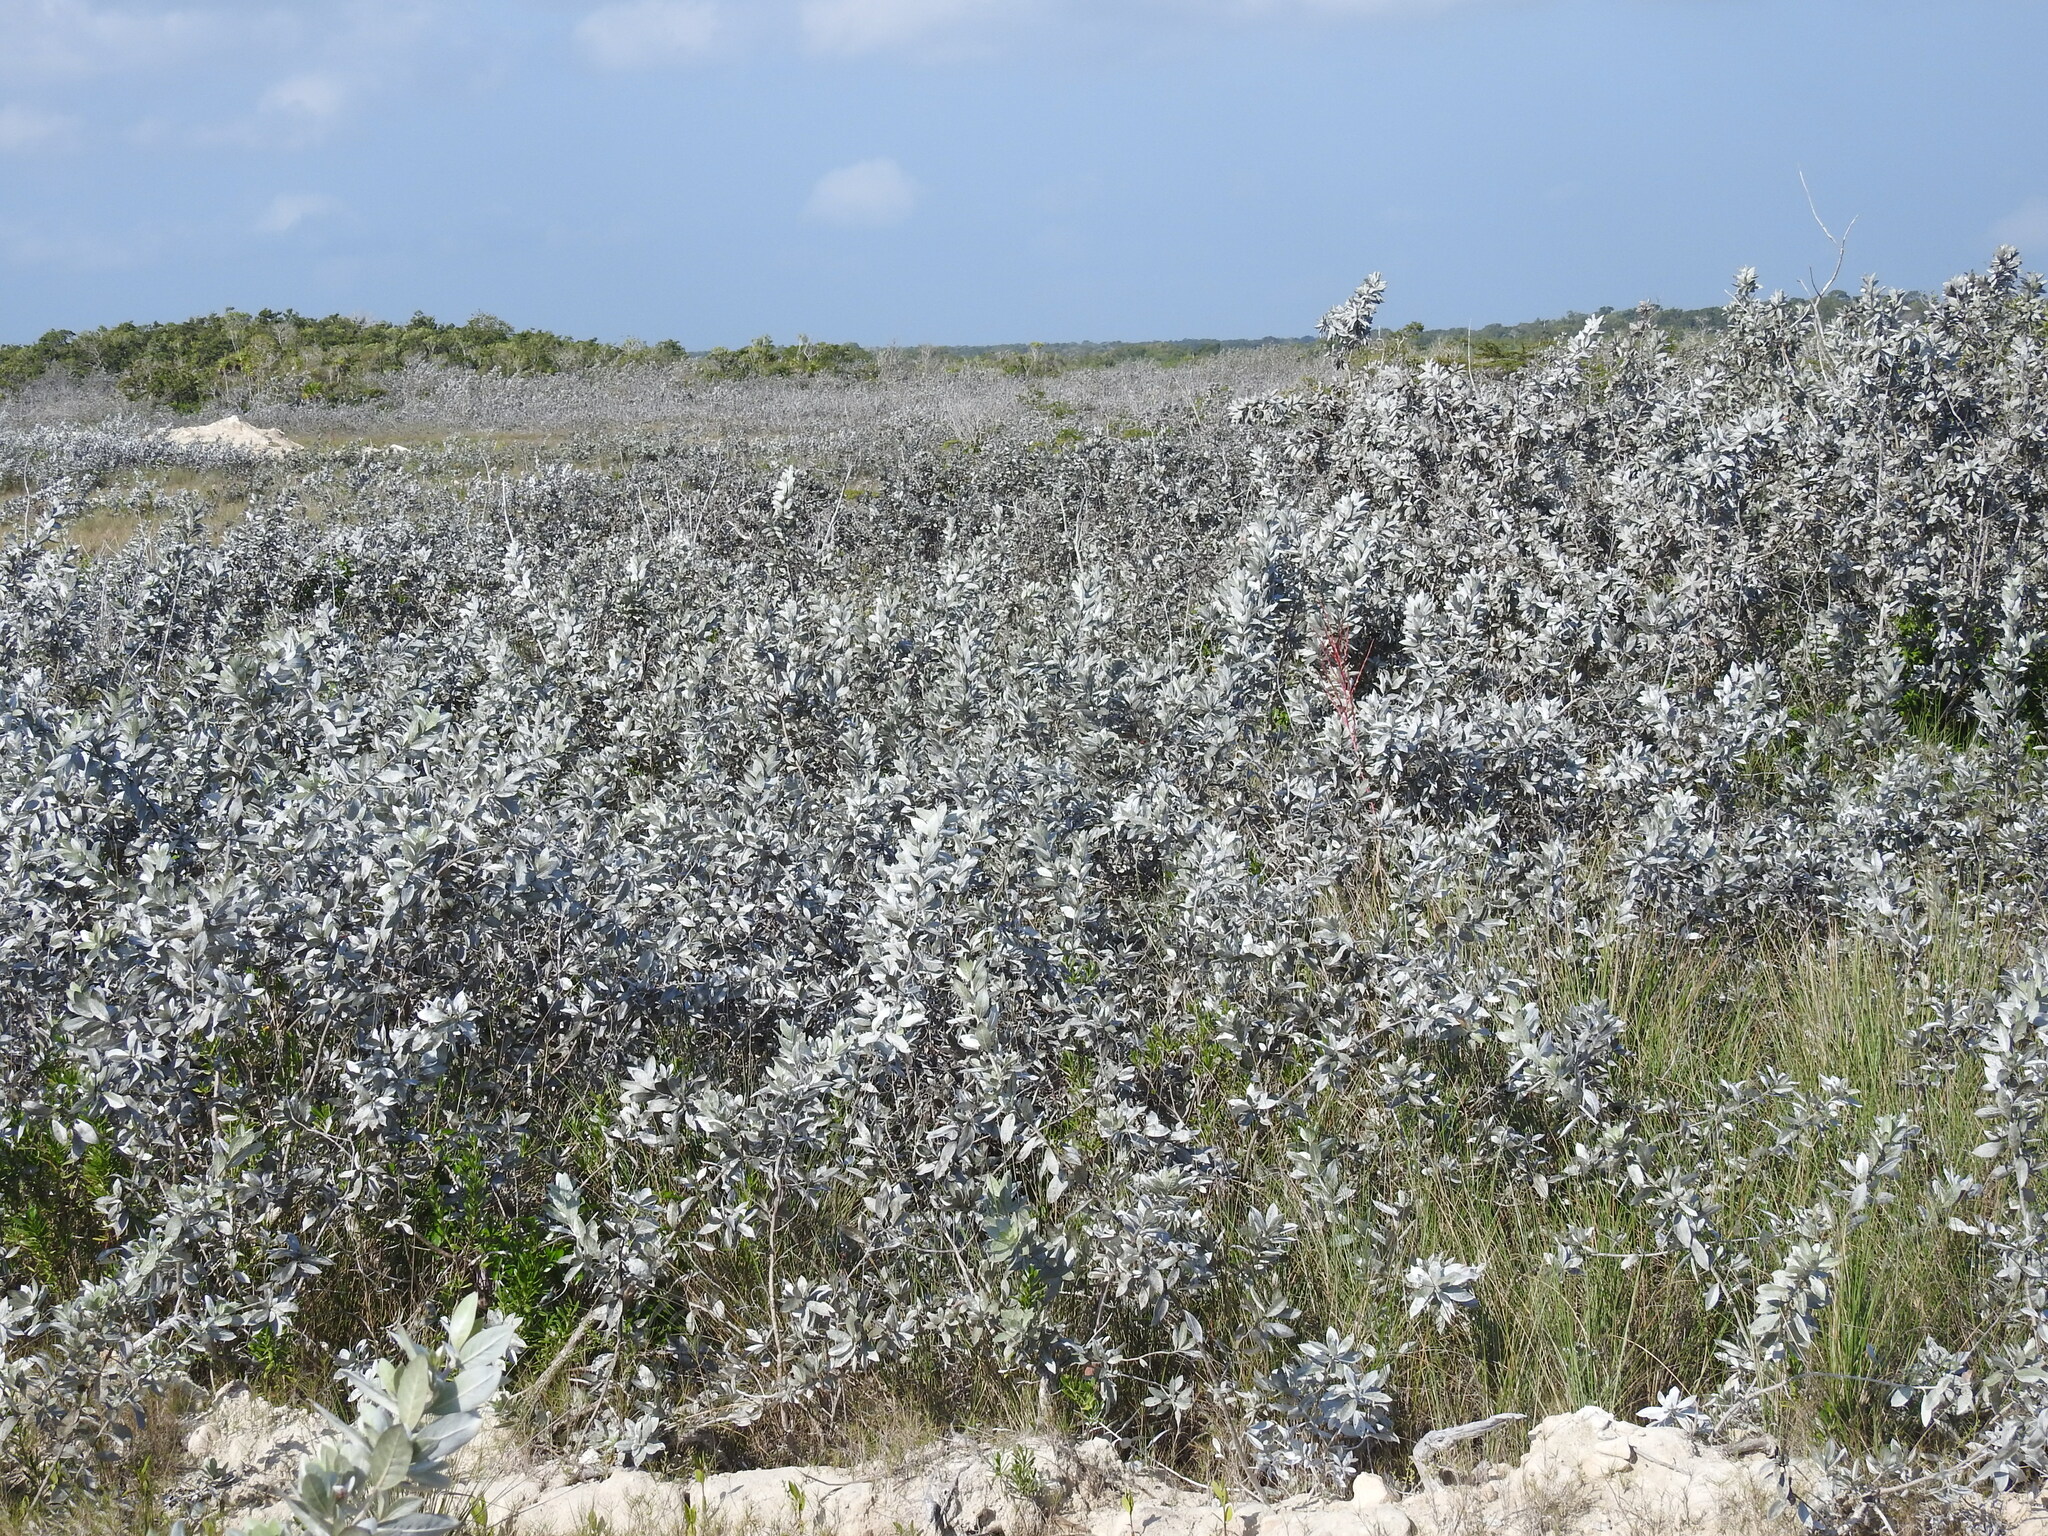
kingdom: Plantae
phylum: Tracheophyta
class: Magnoliopsida
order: Myrtales
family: Combretaceae
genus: Conocarpus
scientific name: Conocarpus erectus
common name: Button mangrove
